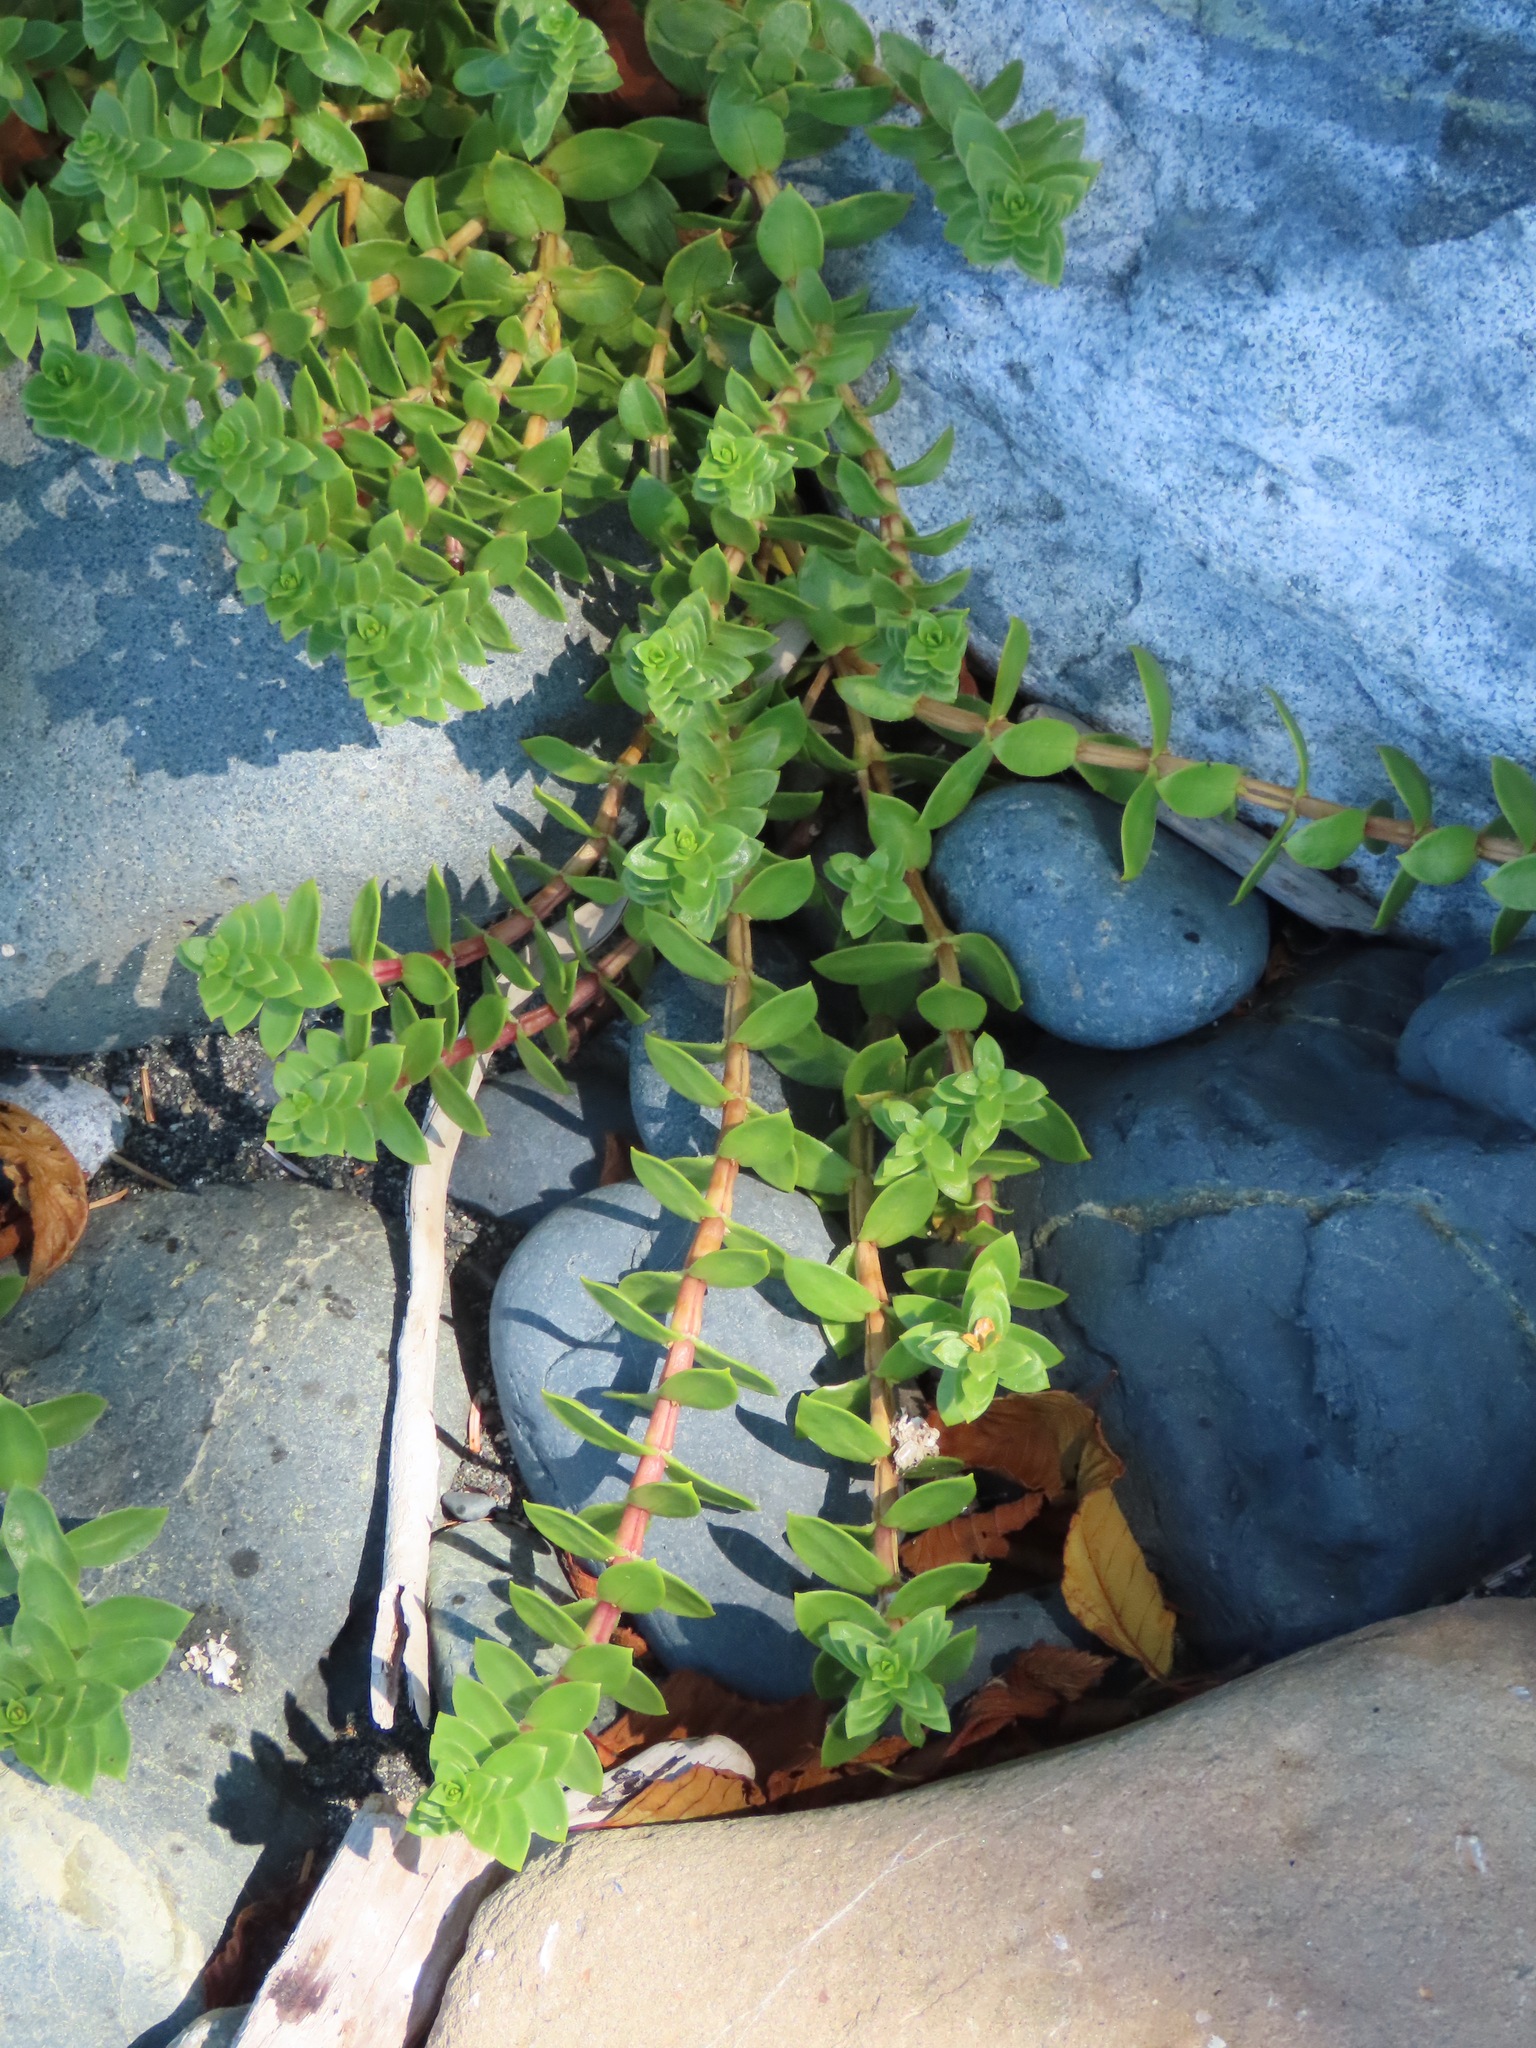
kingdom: Plantae
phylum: Tracheophyta
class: Magnoliopsida
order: Caryophyllales
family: Caryophyllaceae
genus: Honckenya
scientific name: Honckenya peploides
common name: Sea sandwort
